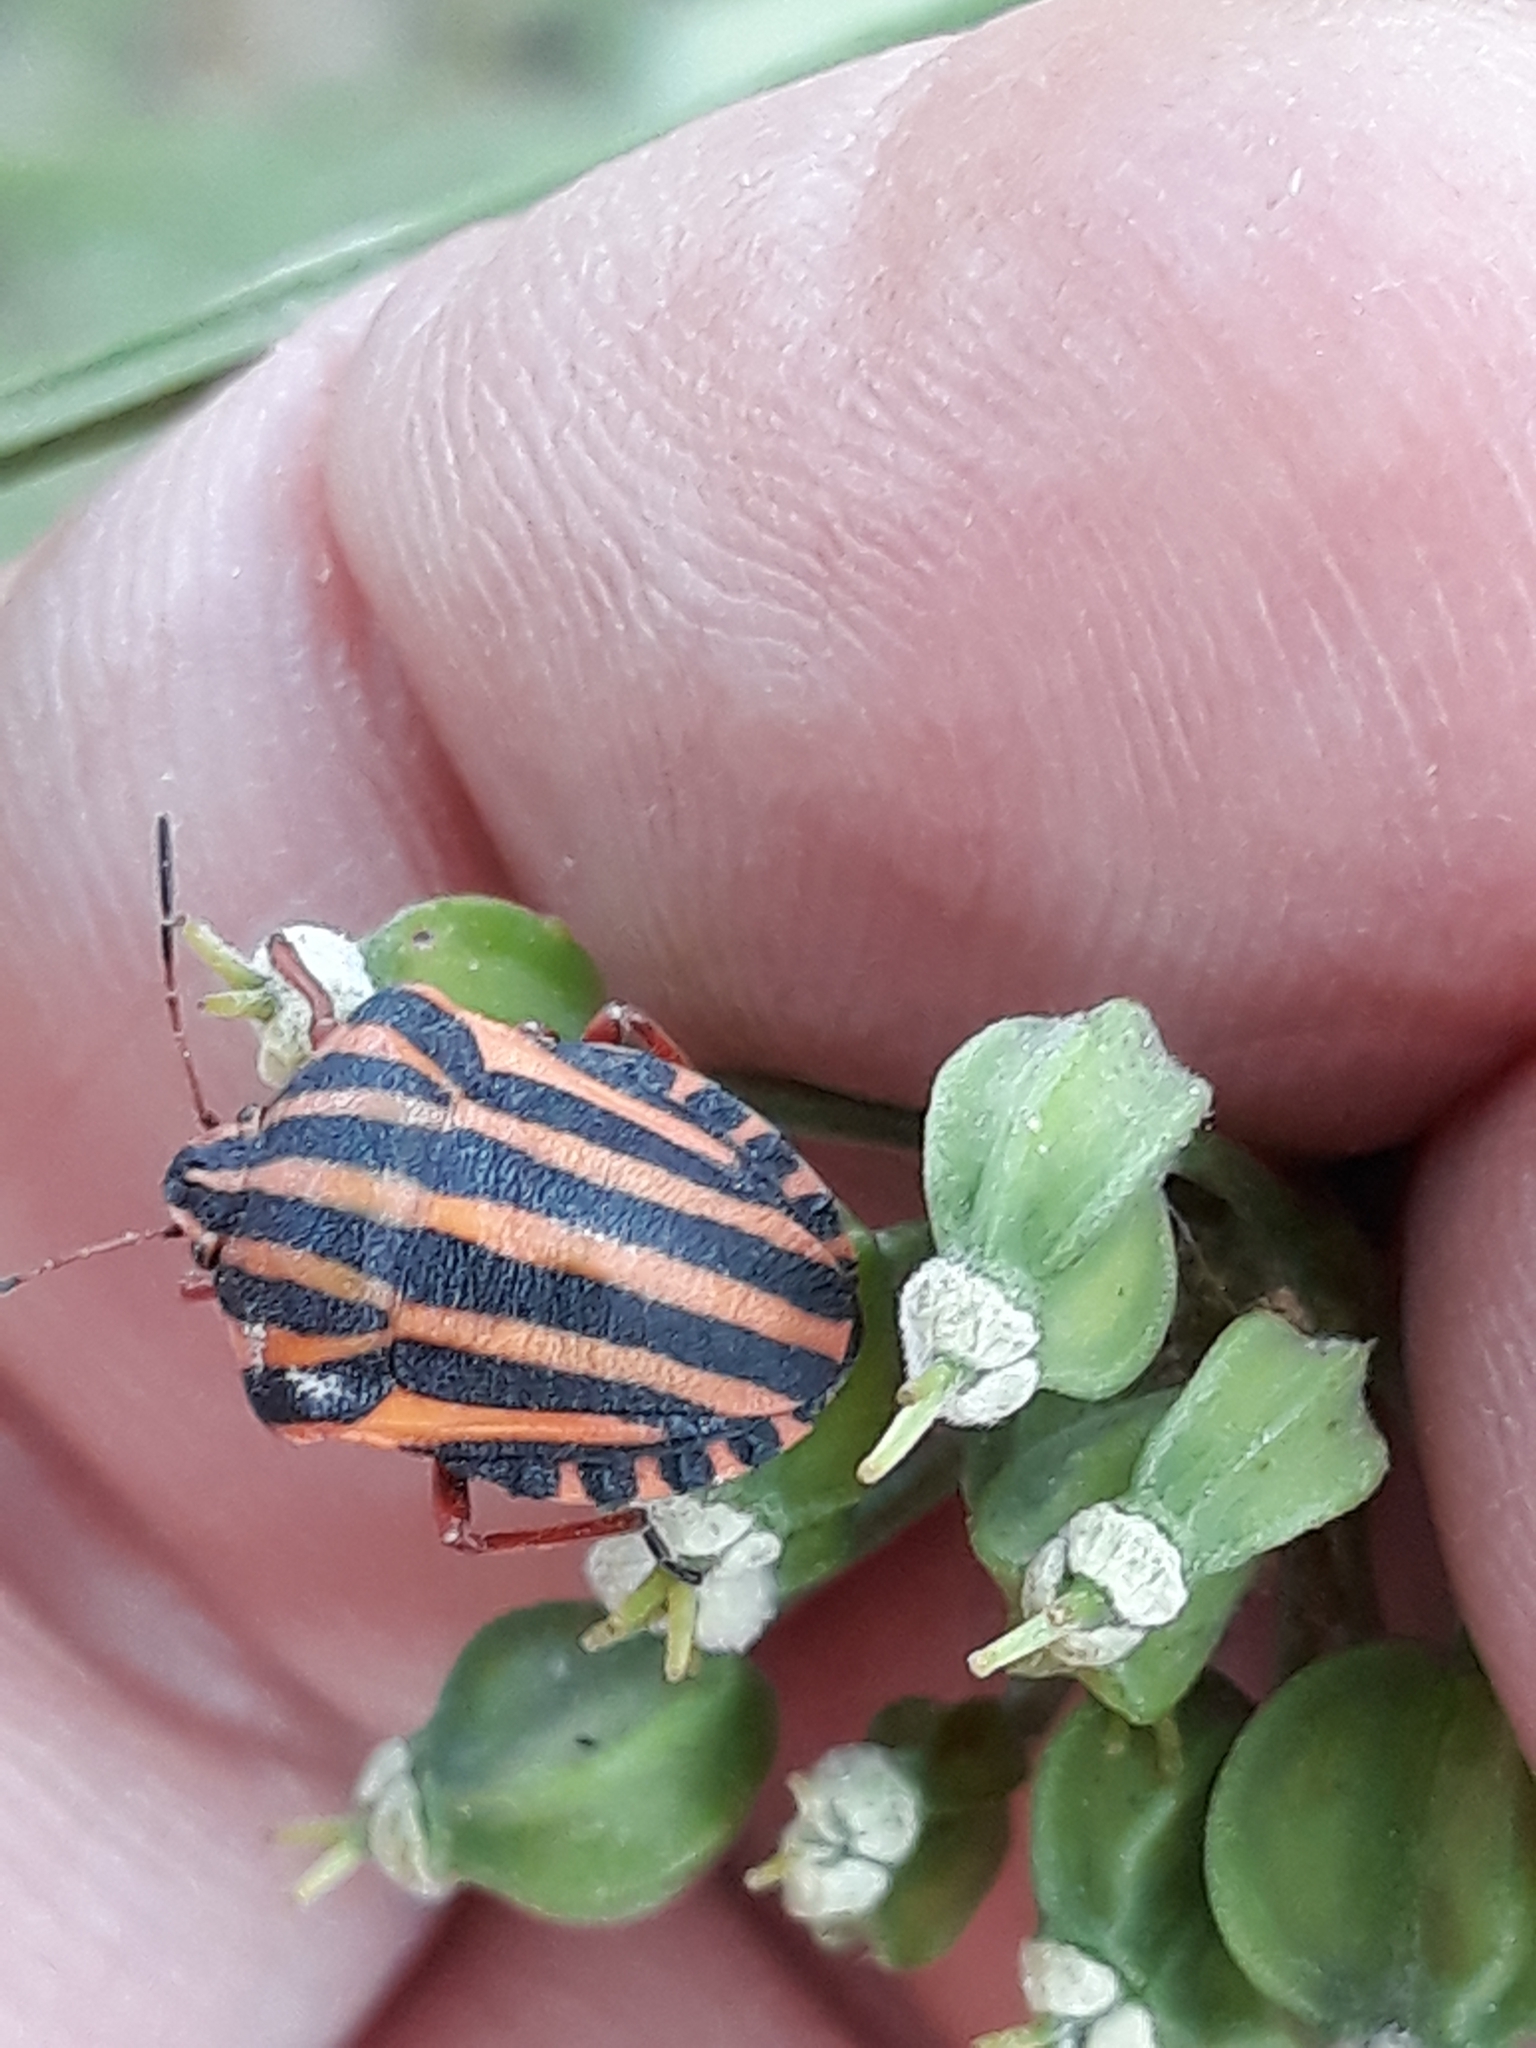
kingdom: Animalia
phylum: Arthropoda
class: Insecta
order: Hemiptera
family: Pentatomidae
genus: Graphosoma
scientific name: Graphosoma lineatum
